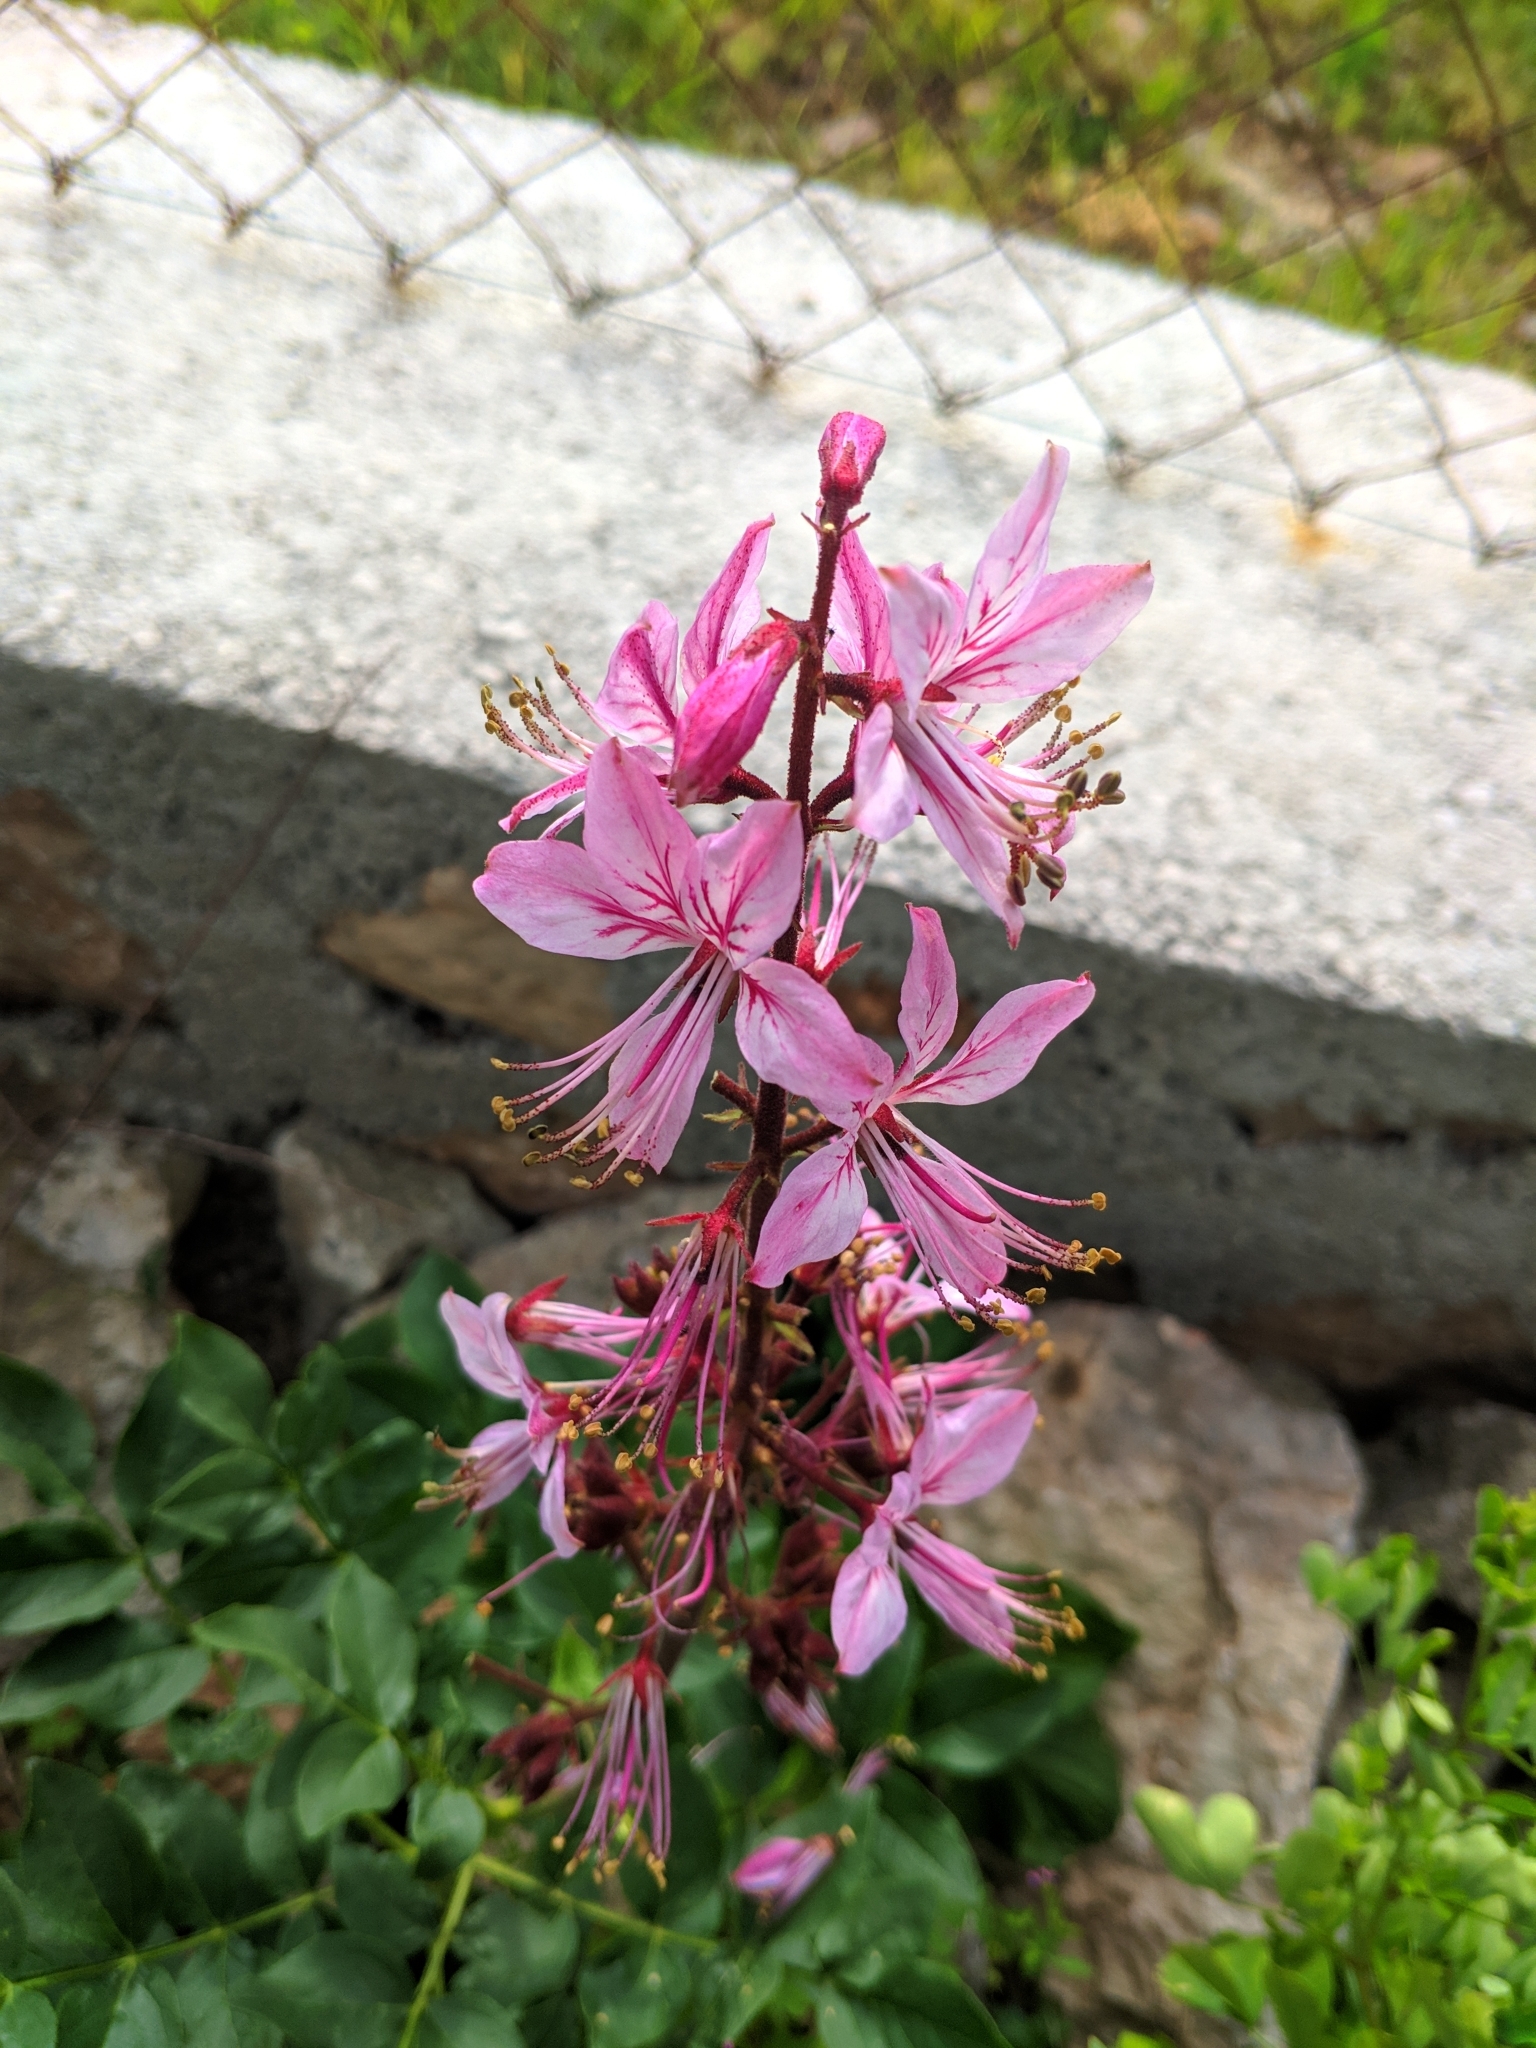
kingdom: Plantae
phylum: Tracheophyta
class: Magnoliopsida
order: Sapindales
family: Rutaceae
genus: Dictamnus
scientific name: Dictamnus albus
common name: Gasplant
